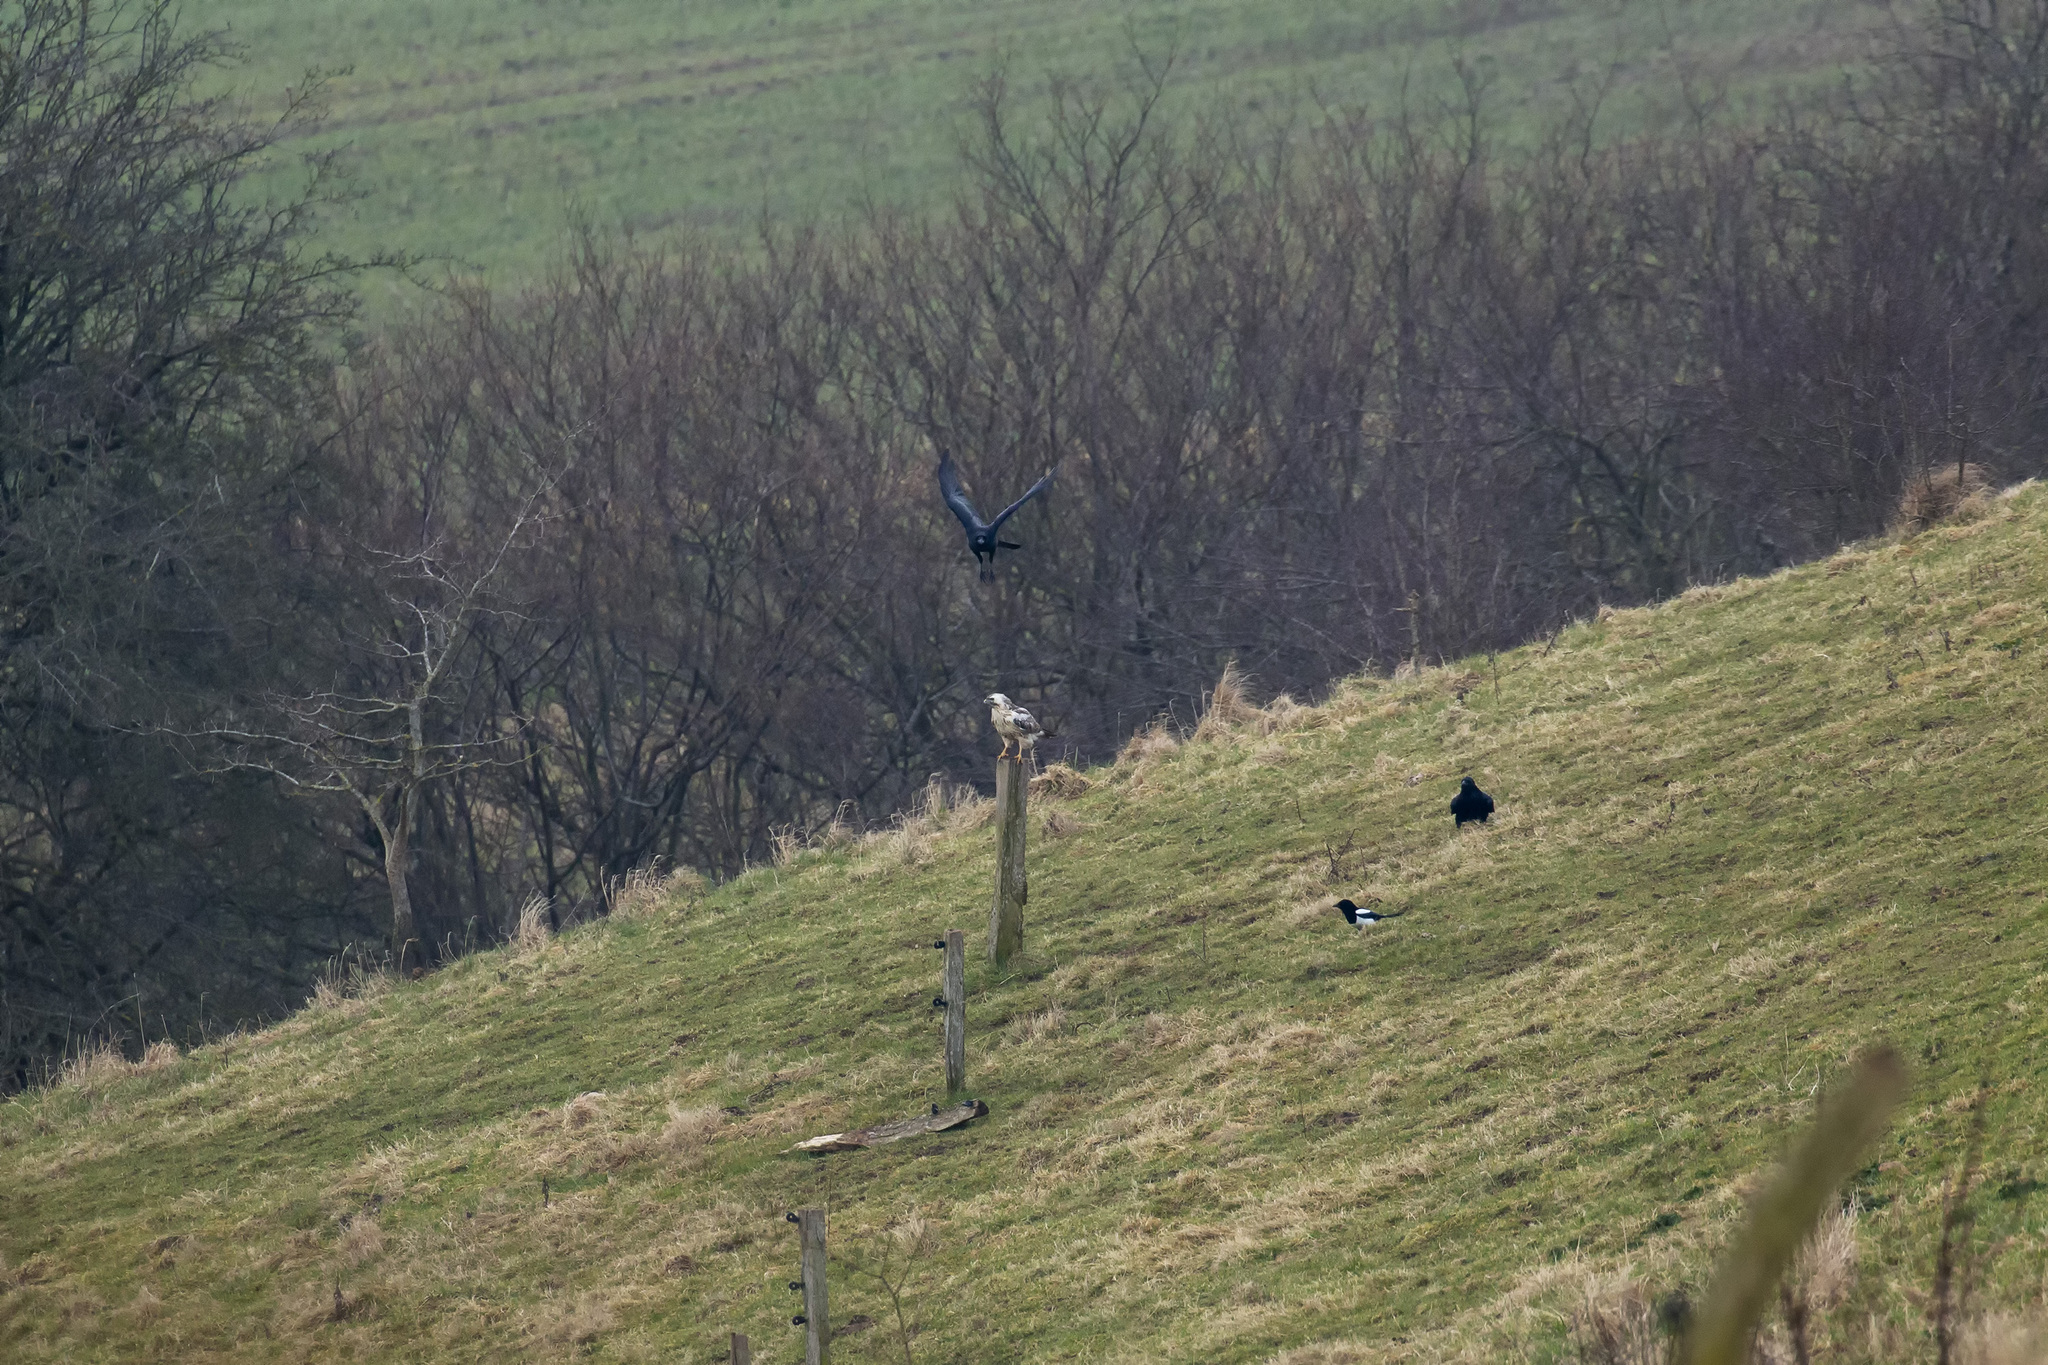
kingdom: Animalia
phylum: Chordata
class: Aves
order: Passeriformes
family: Corvidae
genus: Pica
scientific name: Pica pica
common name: Eurasian magpie
